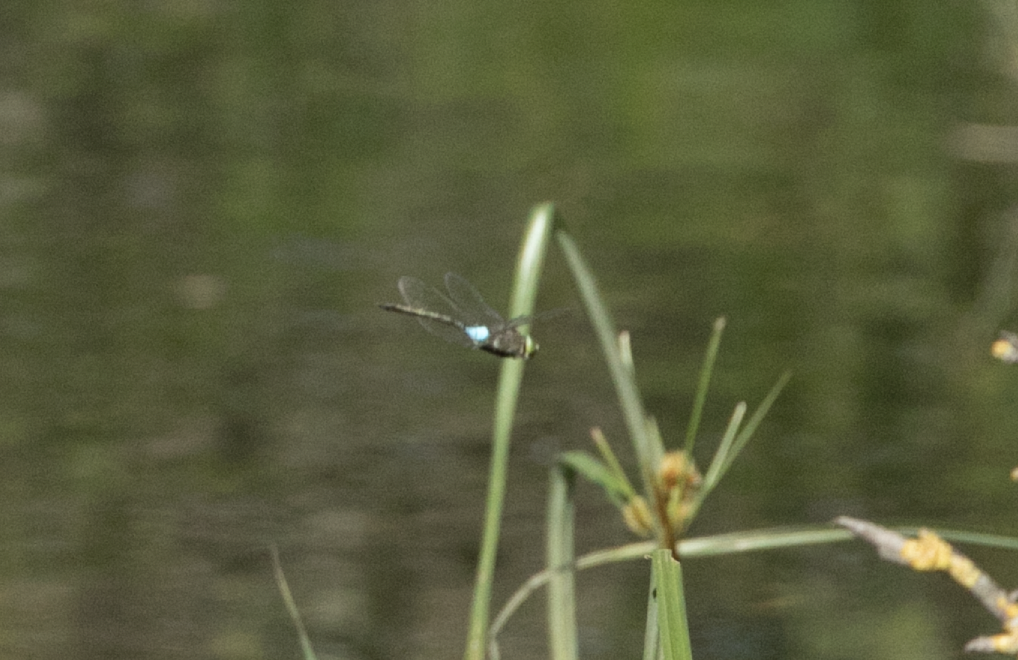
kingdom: Animalia
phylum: Arthropoda
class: Insecta
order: Odonata
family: Aeshnidae
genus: Anax
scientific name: Anax parthenope
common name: Lesser emperor
